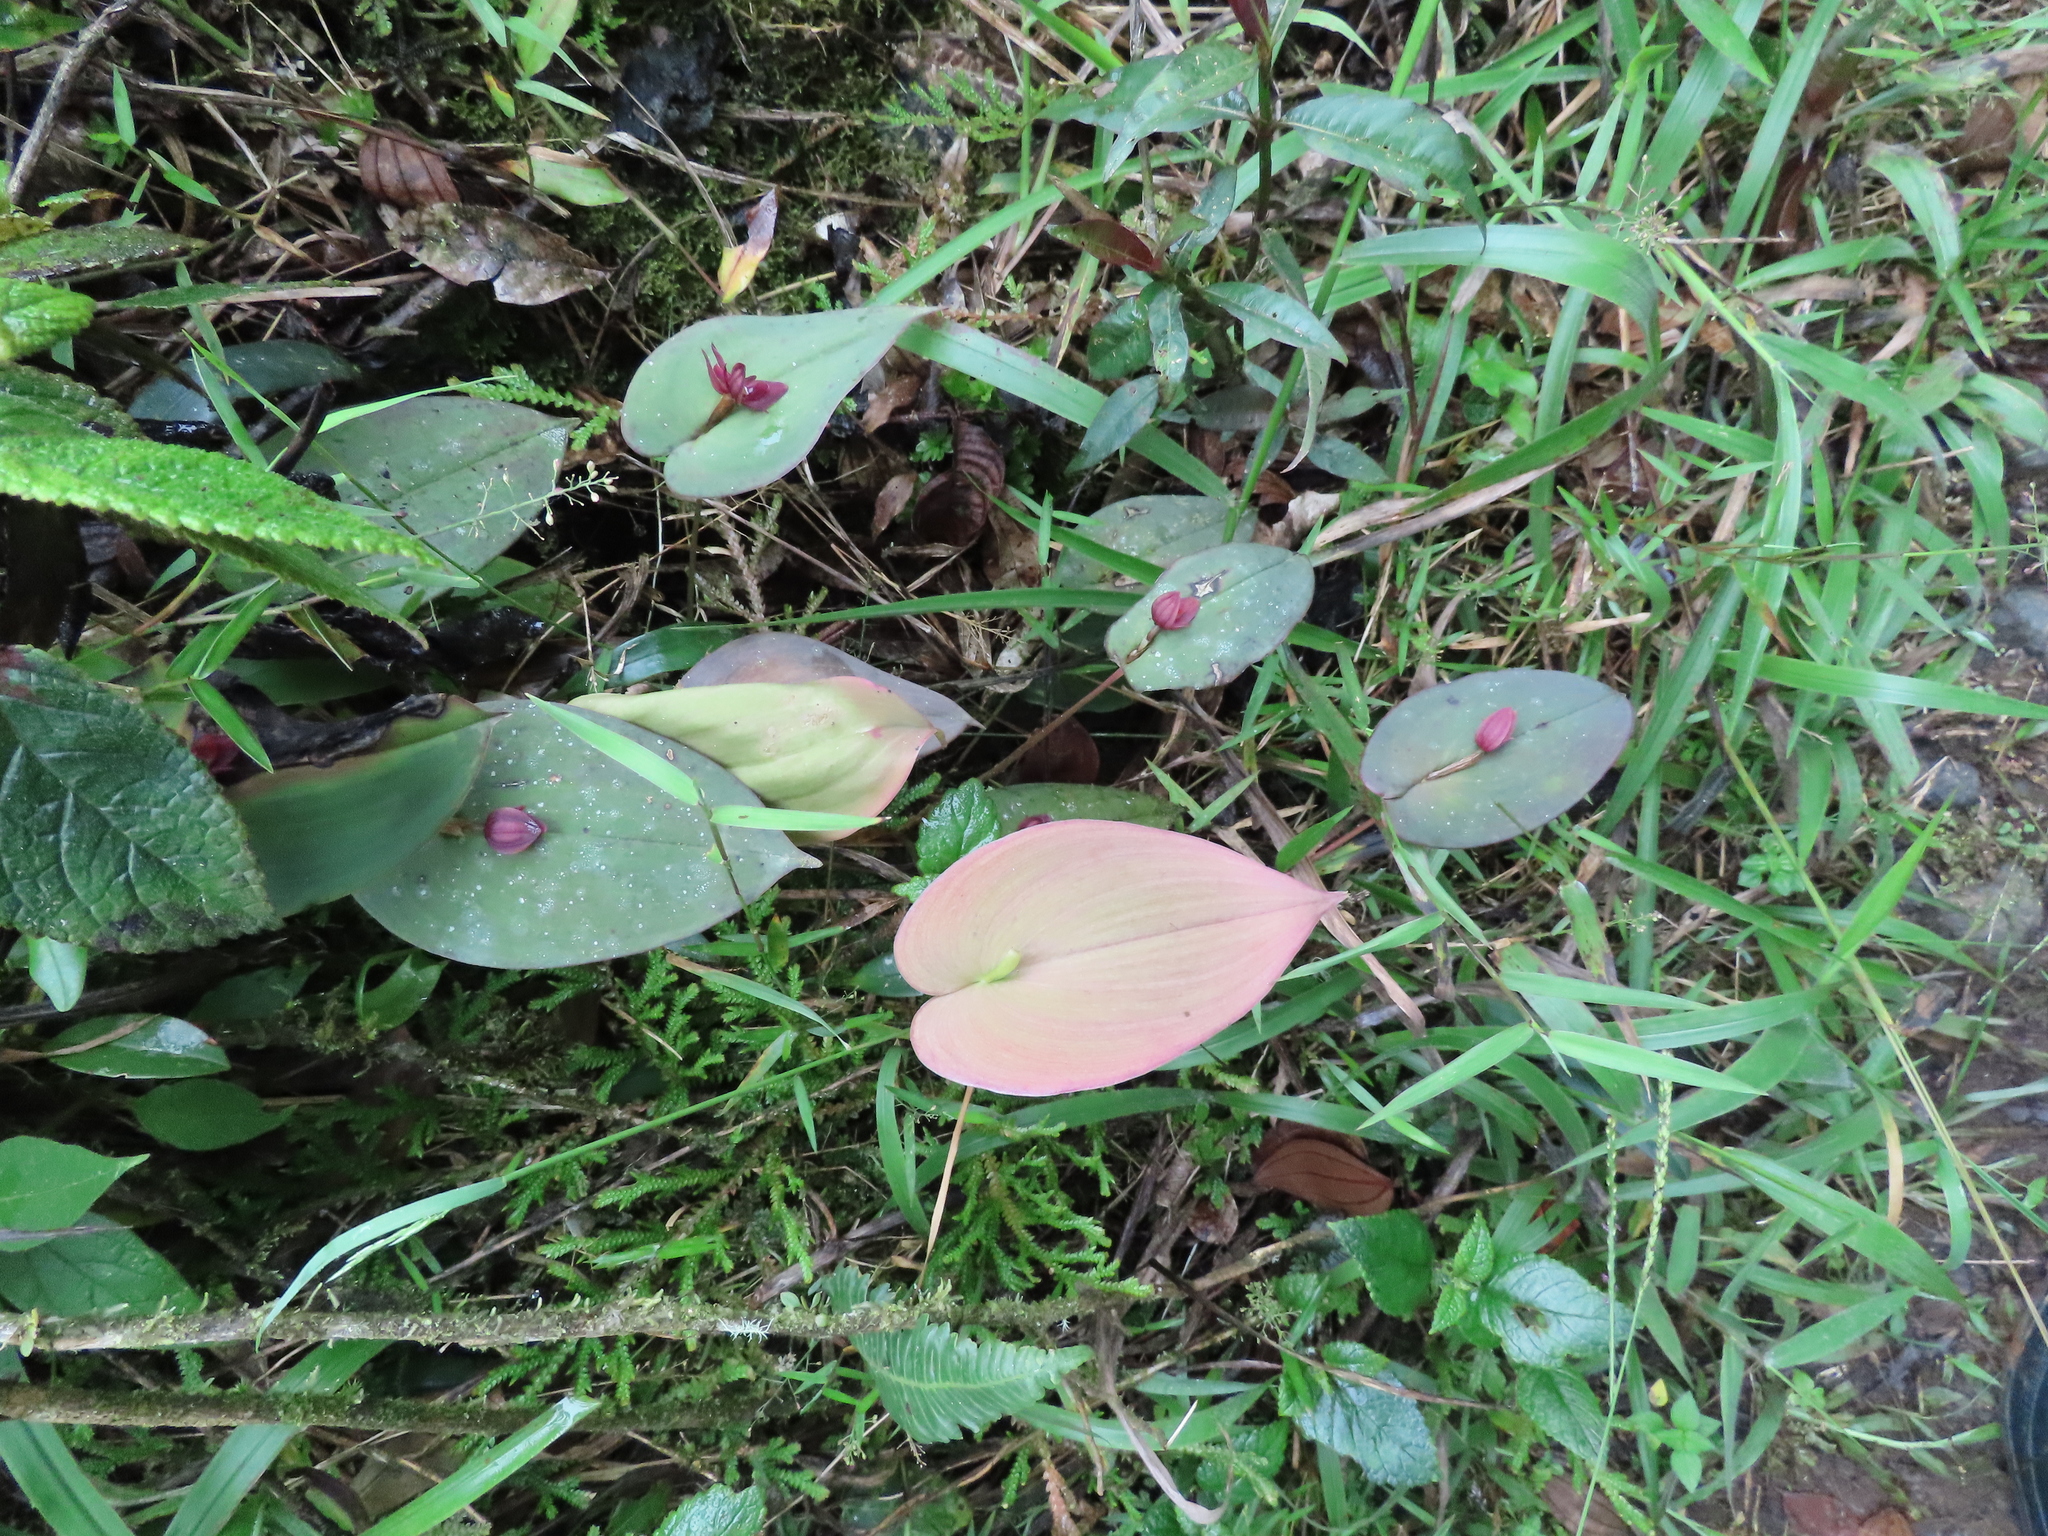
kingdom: Plantae
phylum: Tracheophyta
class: Liliopsida
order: Asparagales
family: Orchidaceae
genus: Pleurothallis
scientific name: Pleurothallis giraldoi
